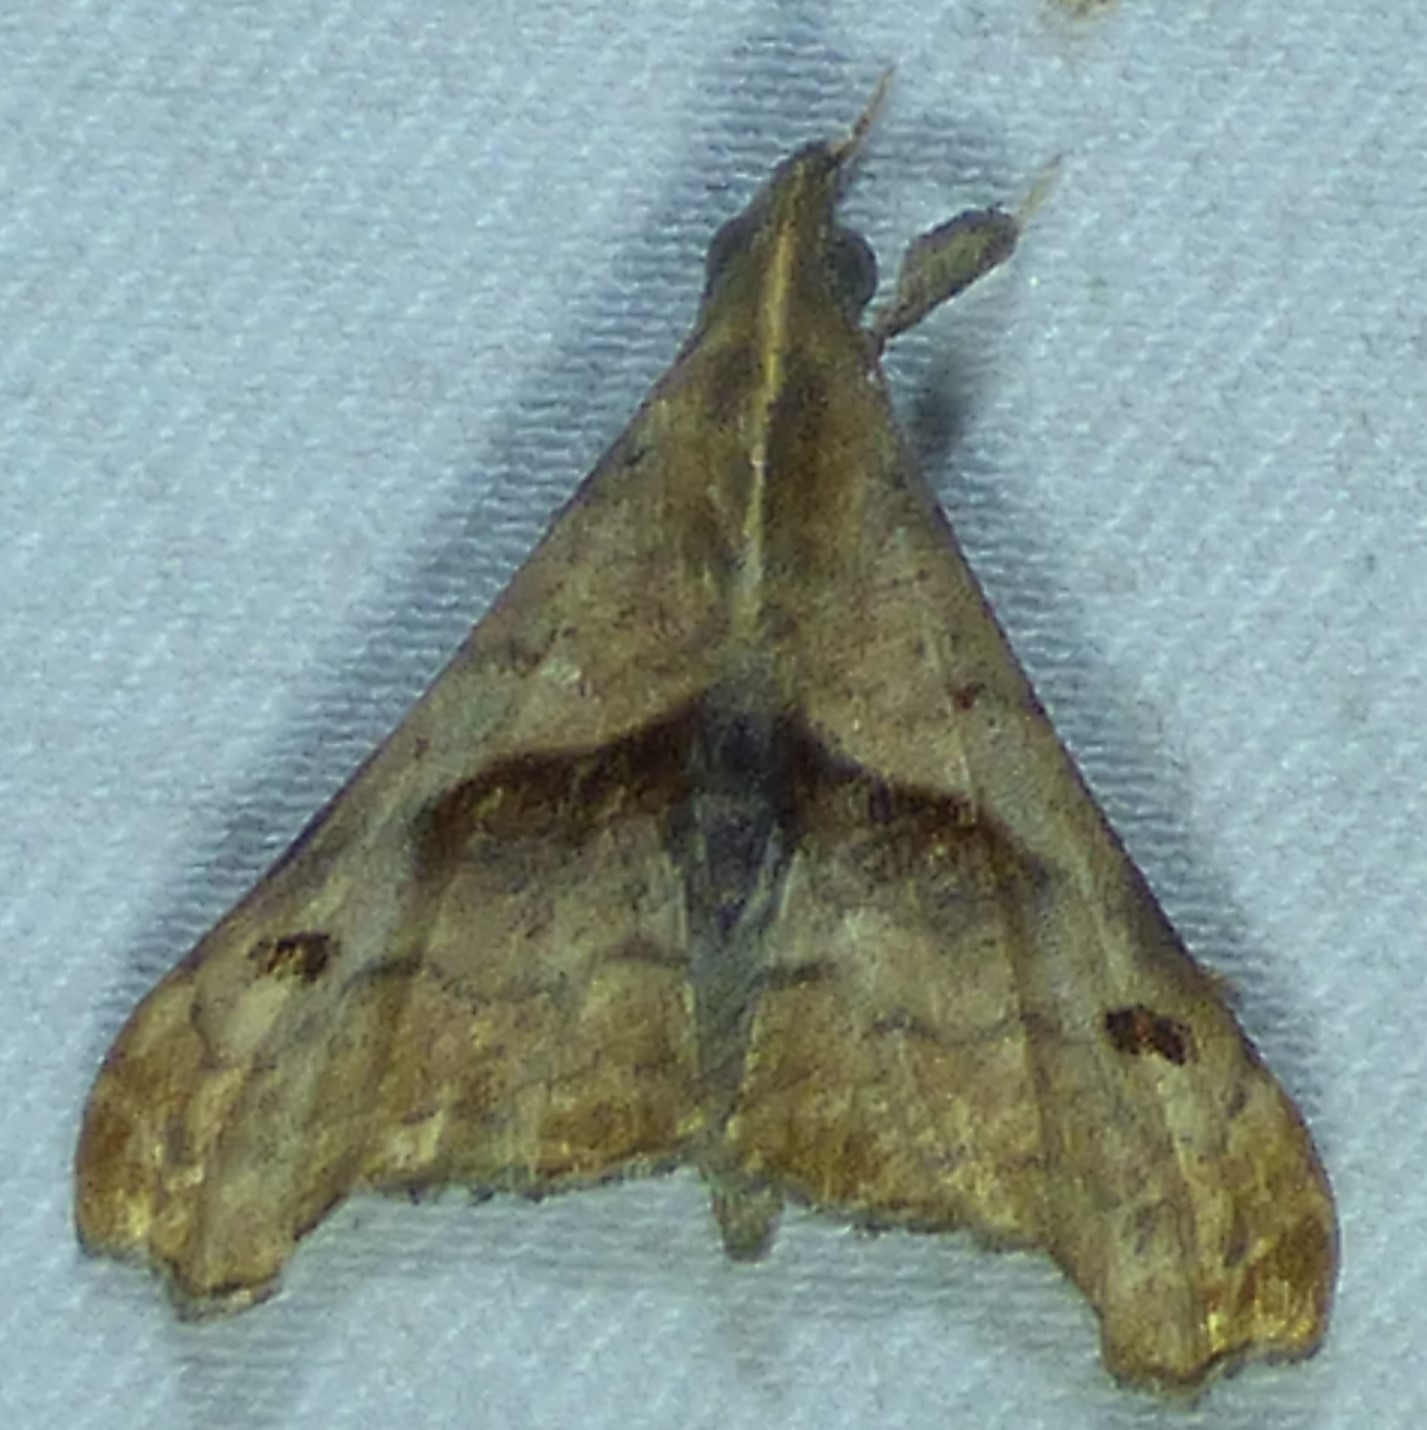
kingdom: Animalia
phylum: Arthropoda
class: Insecta
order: Lepidoptera
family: Erebidae
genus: Palthis
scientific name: Palthis angulalis
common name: Dark-spotted palthis moth
